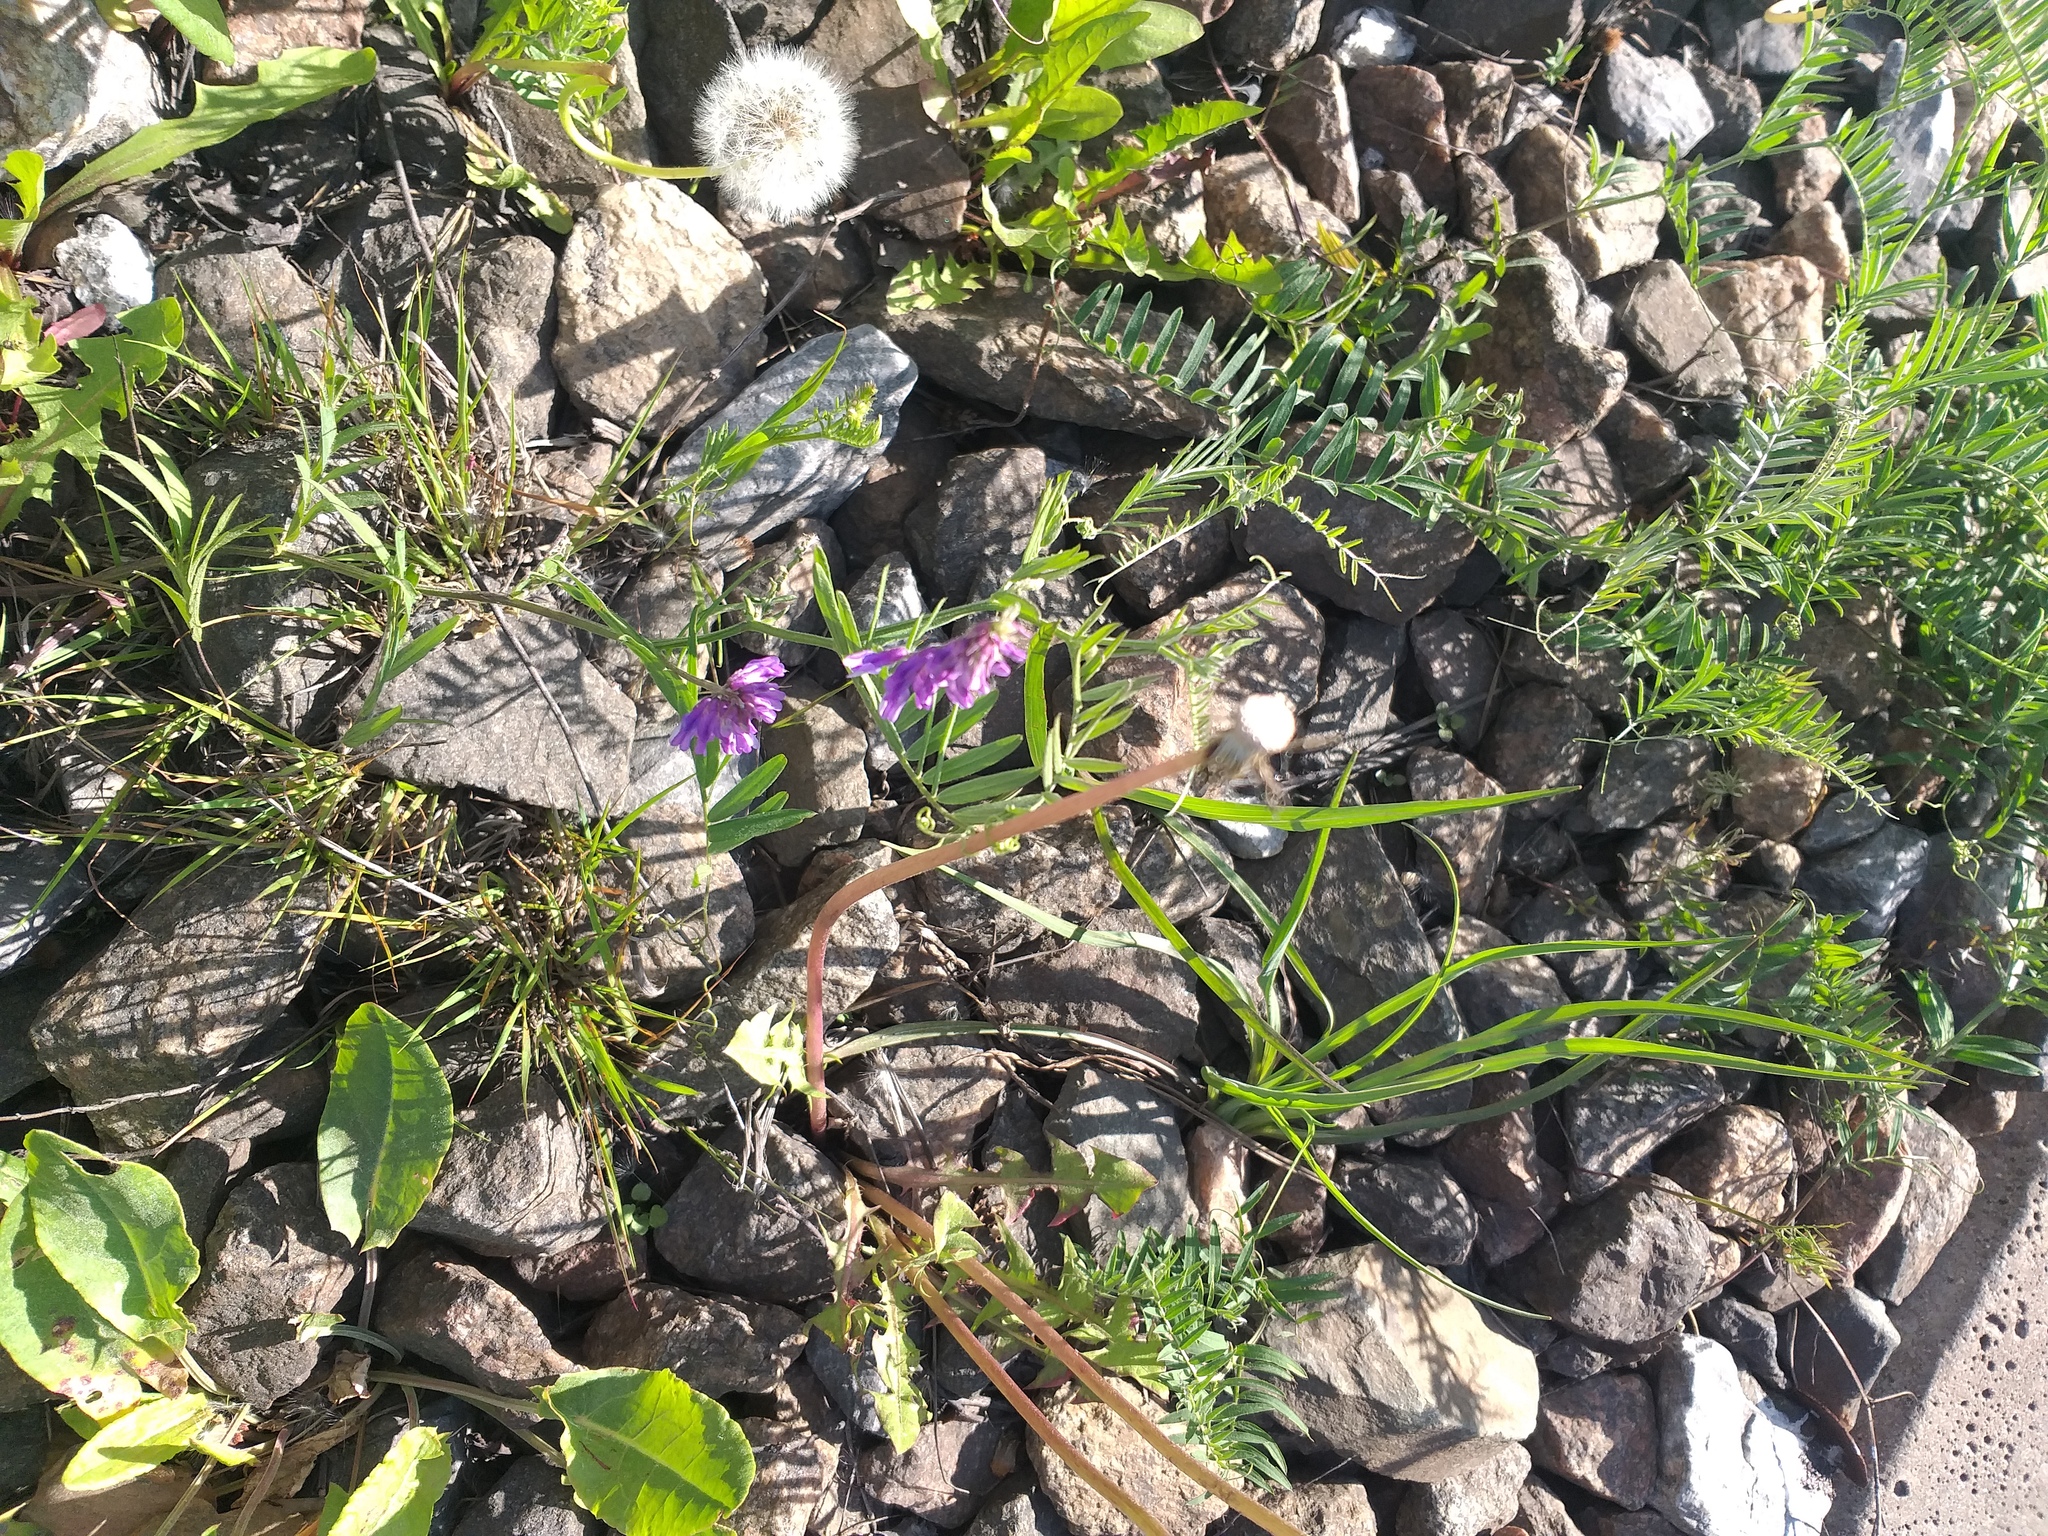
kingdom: Plantae
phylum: Tracheophyta
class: Magnoliopsida
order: Fabales
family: Fabaceae
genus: Vicia
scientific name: Vicia cracca
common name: Bird vetch
